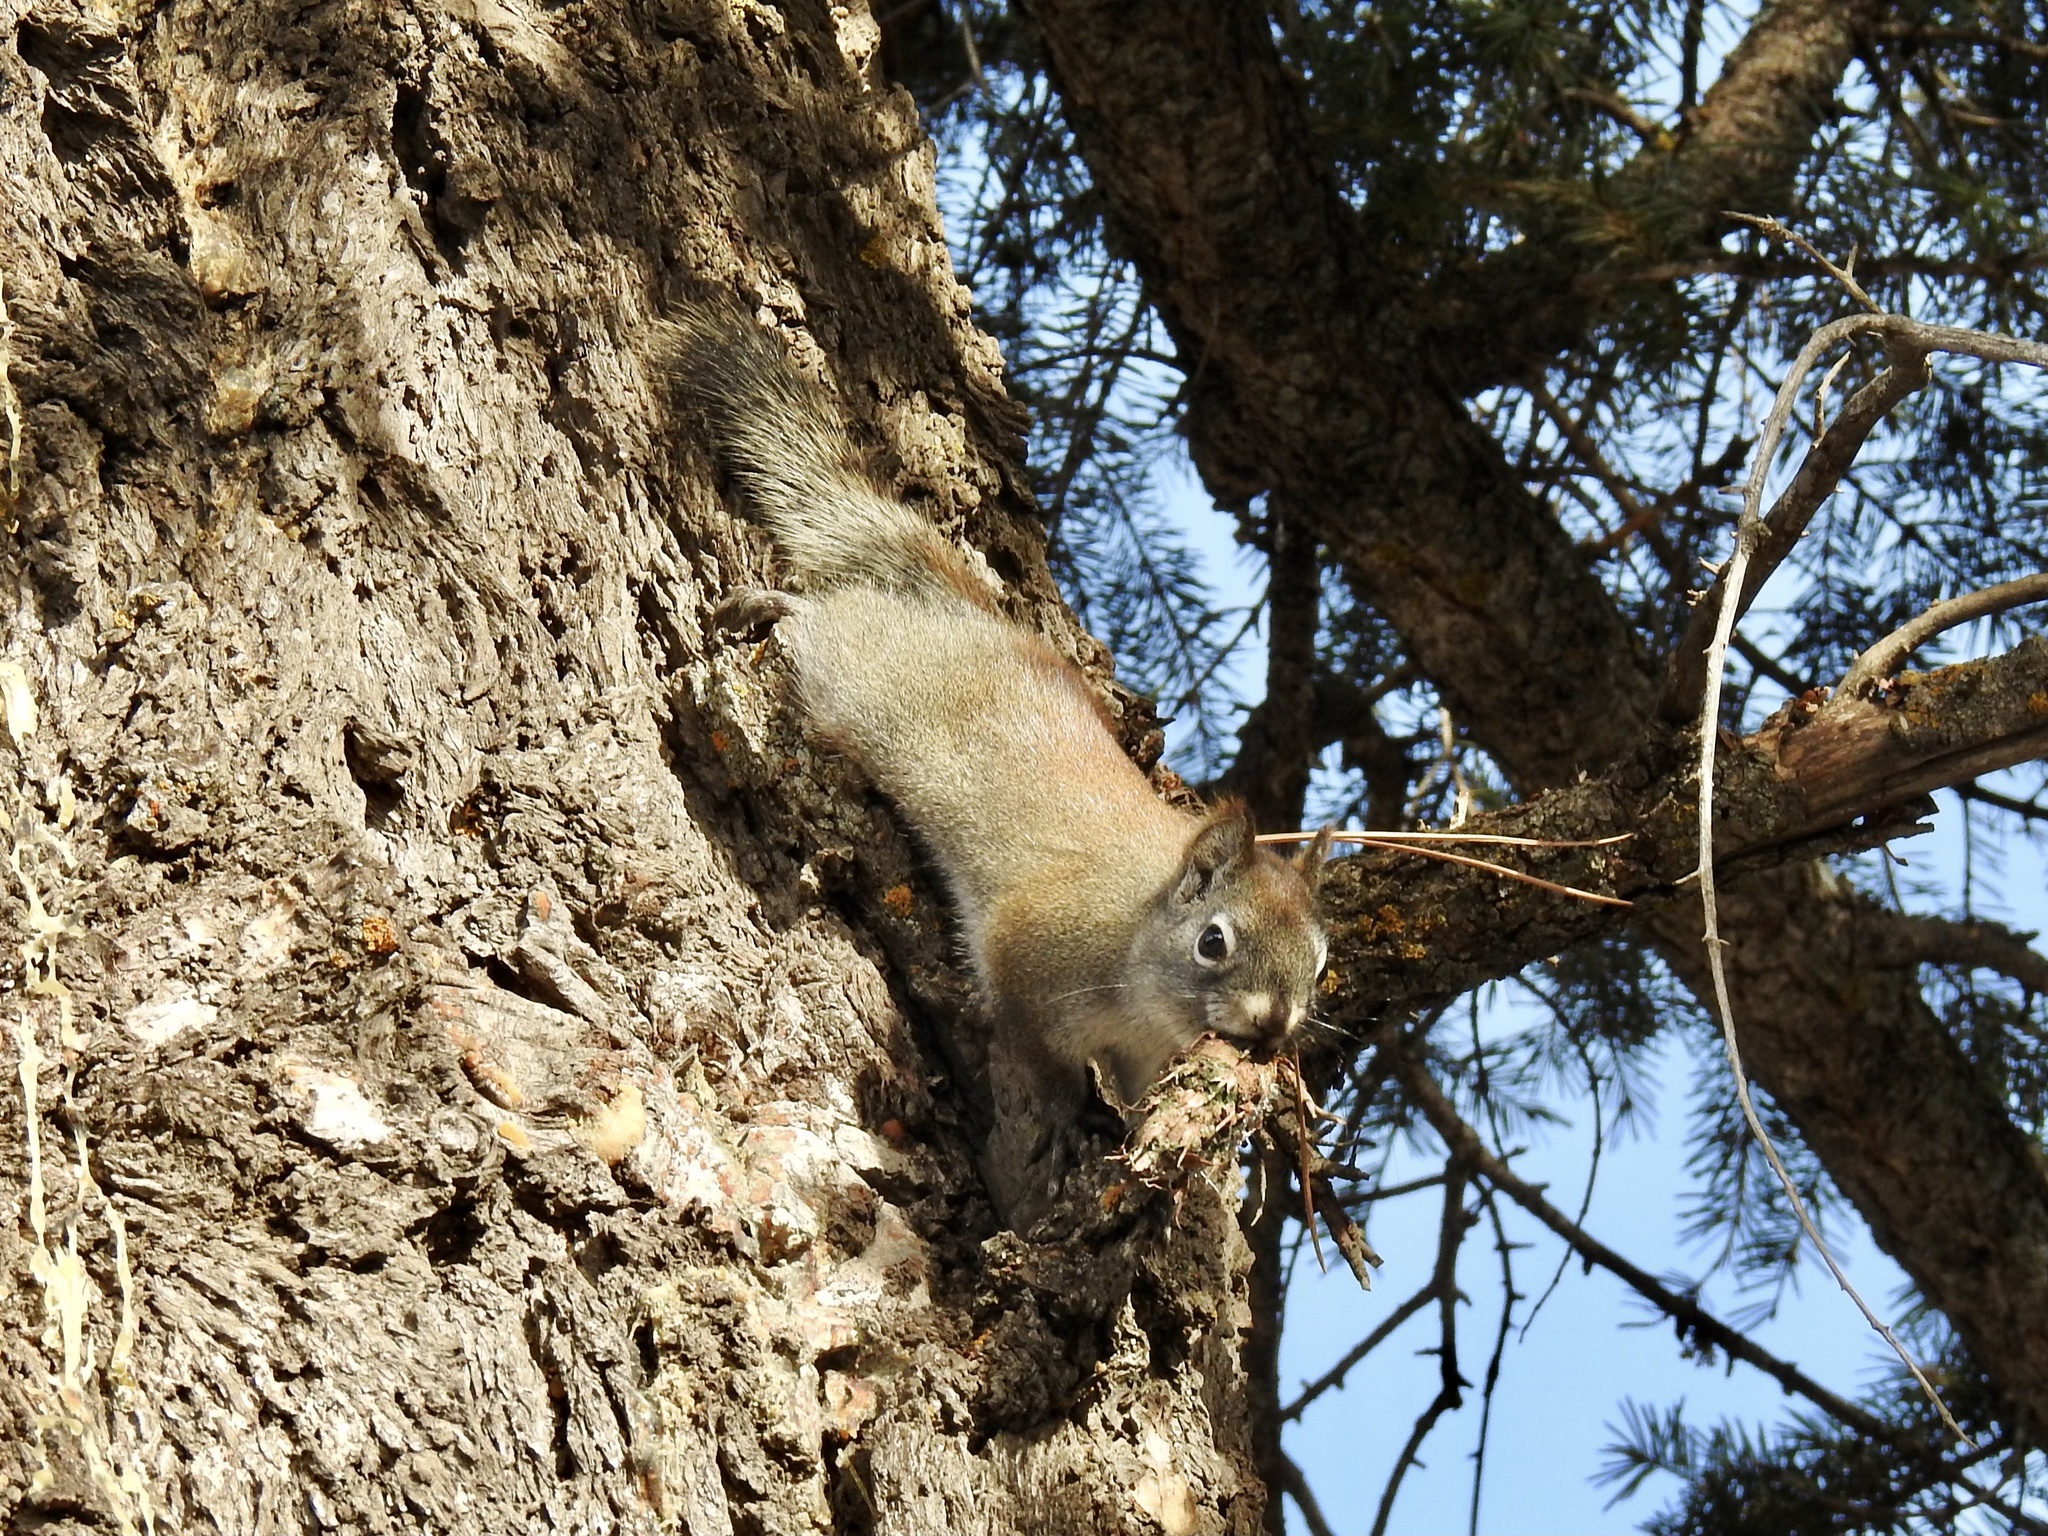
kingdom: Animalia
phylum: Chordata
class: Mammalia
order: Rodentia
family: Sciuridae
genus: Tamiasciurus
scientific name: Tamiasciurus hudsonicus
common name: Red squirrel
